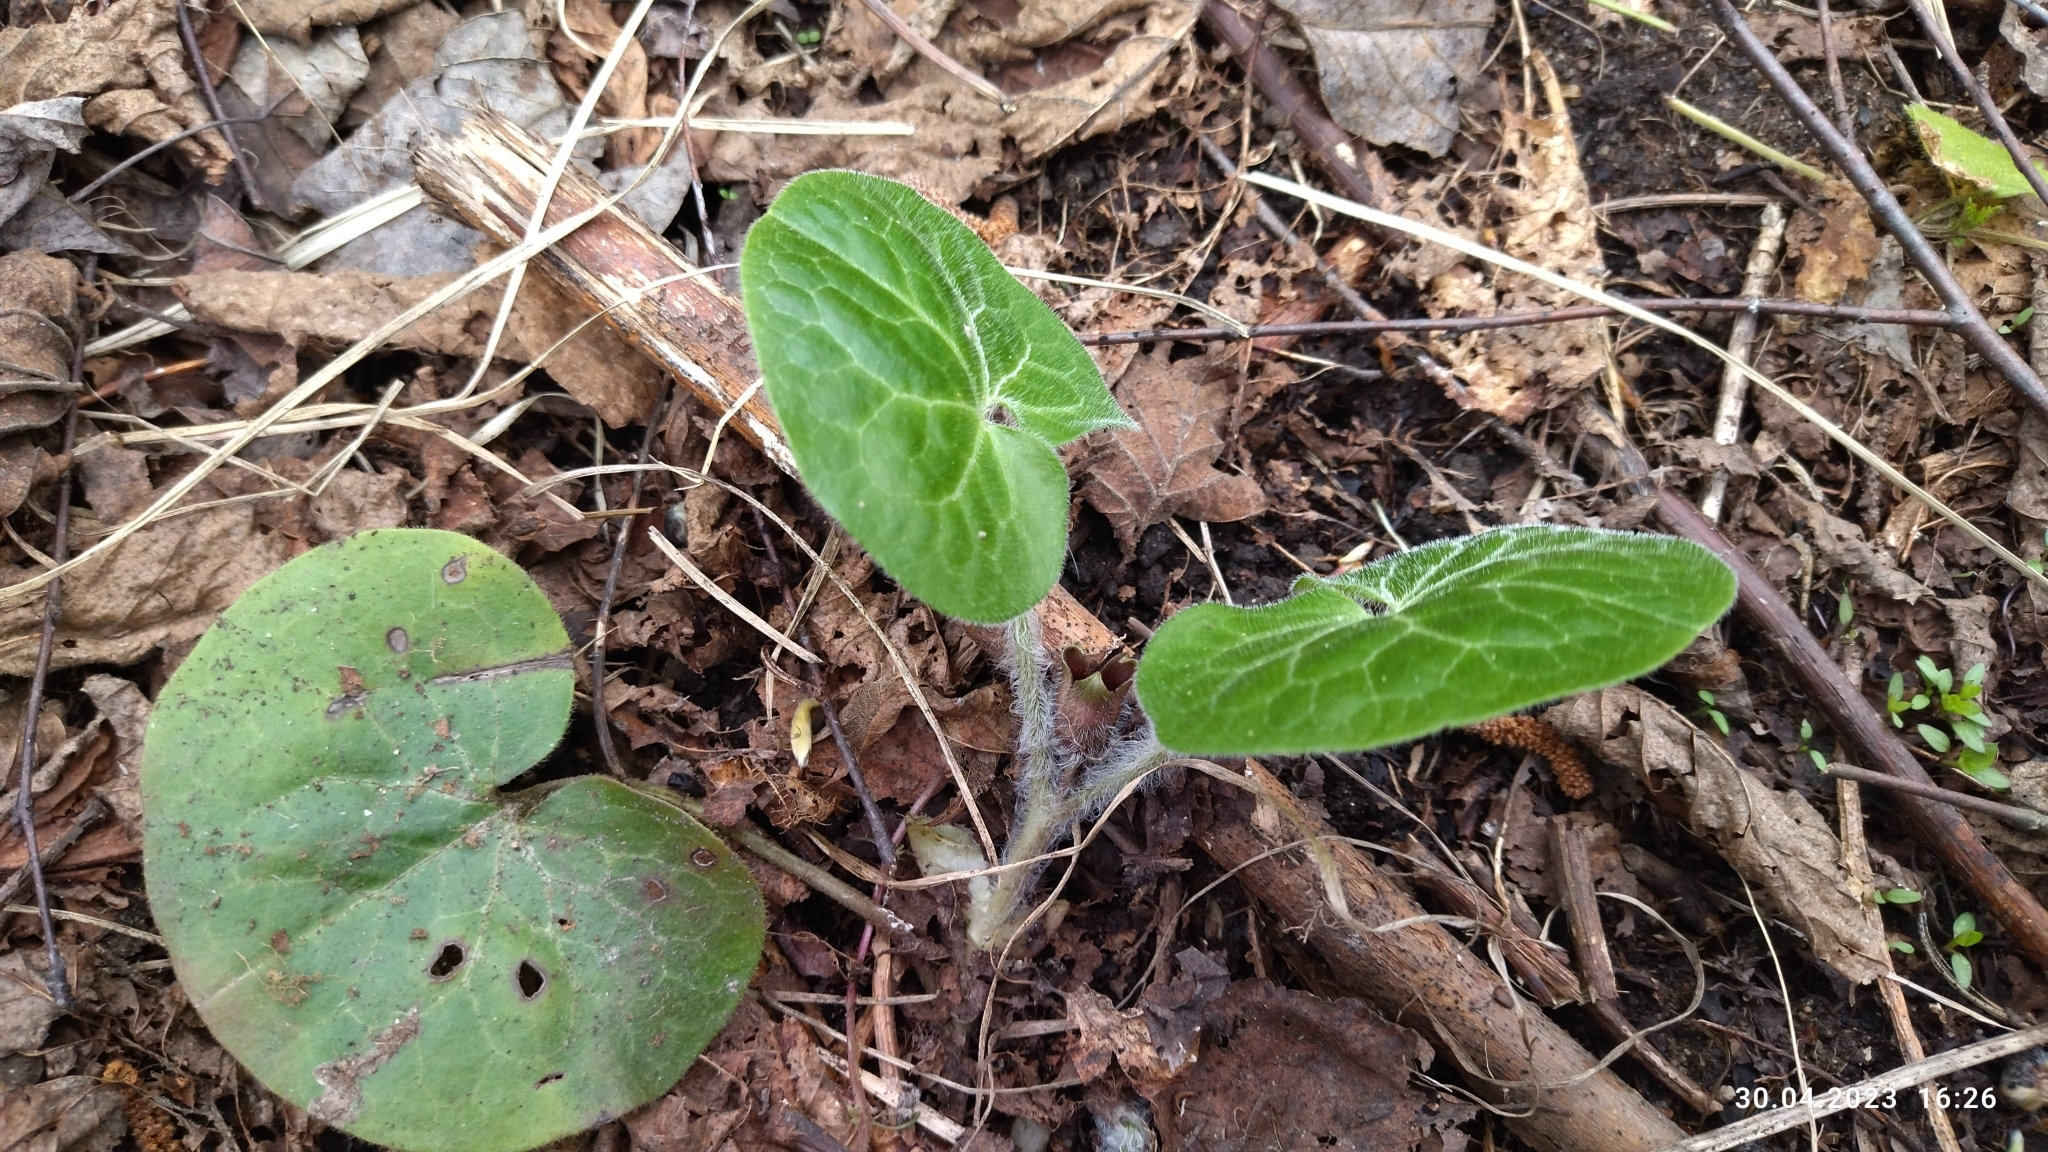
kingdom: Plantae
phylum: Tracheophyta
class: Magnoliopsida
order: Piperales
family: Aristolochiaceae
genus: Asarum
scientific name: Asarum europaeum
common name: Asarabacca
